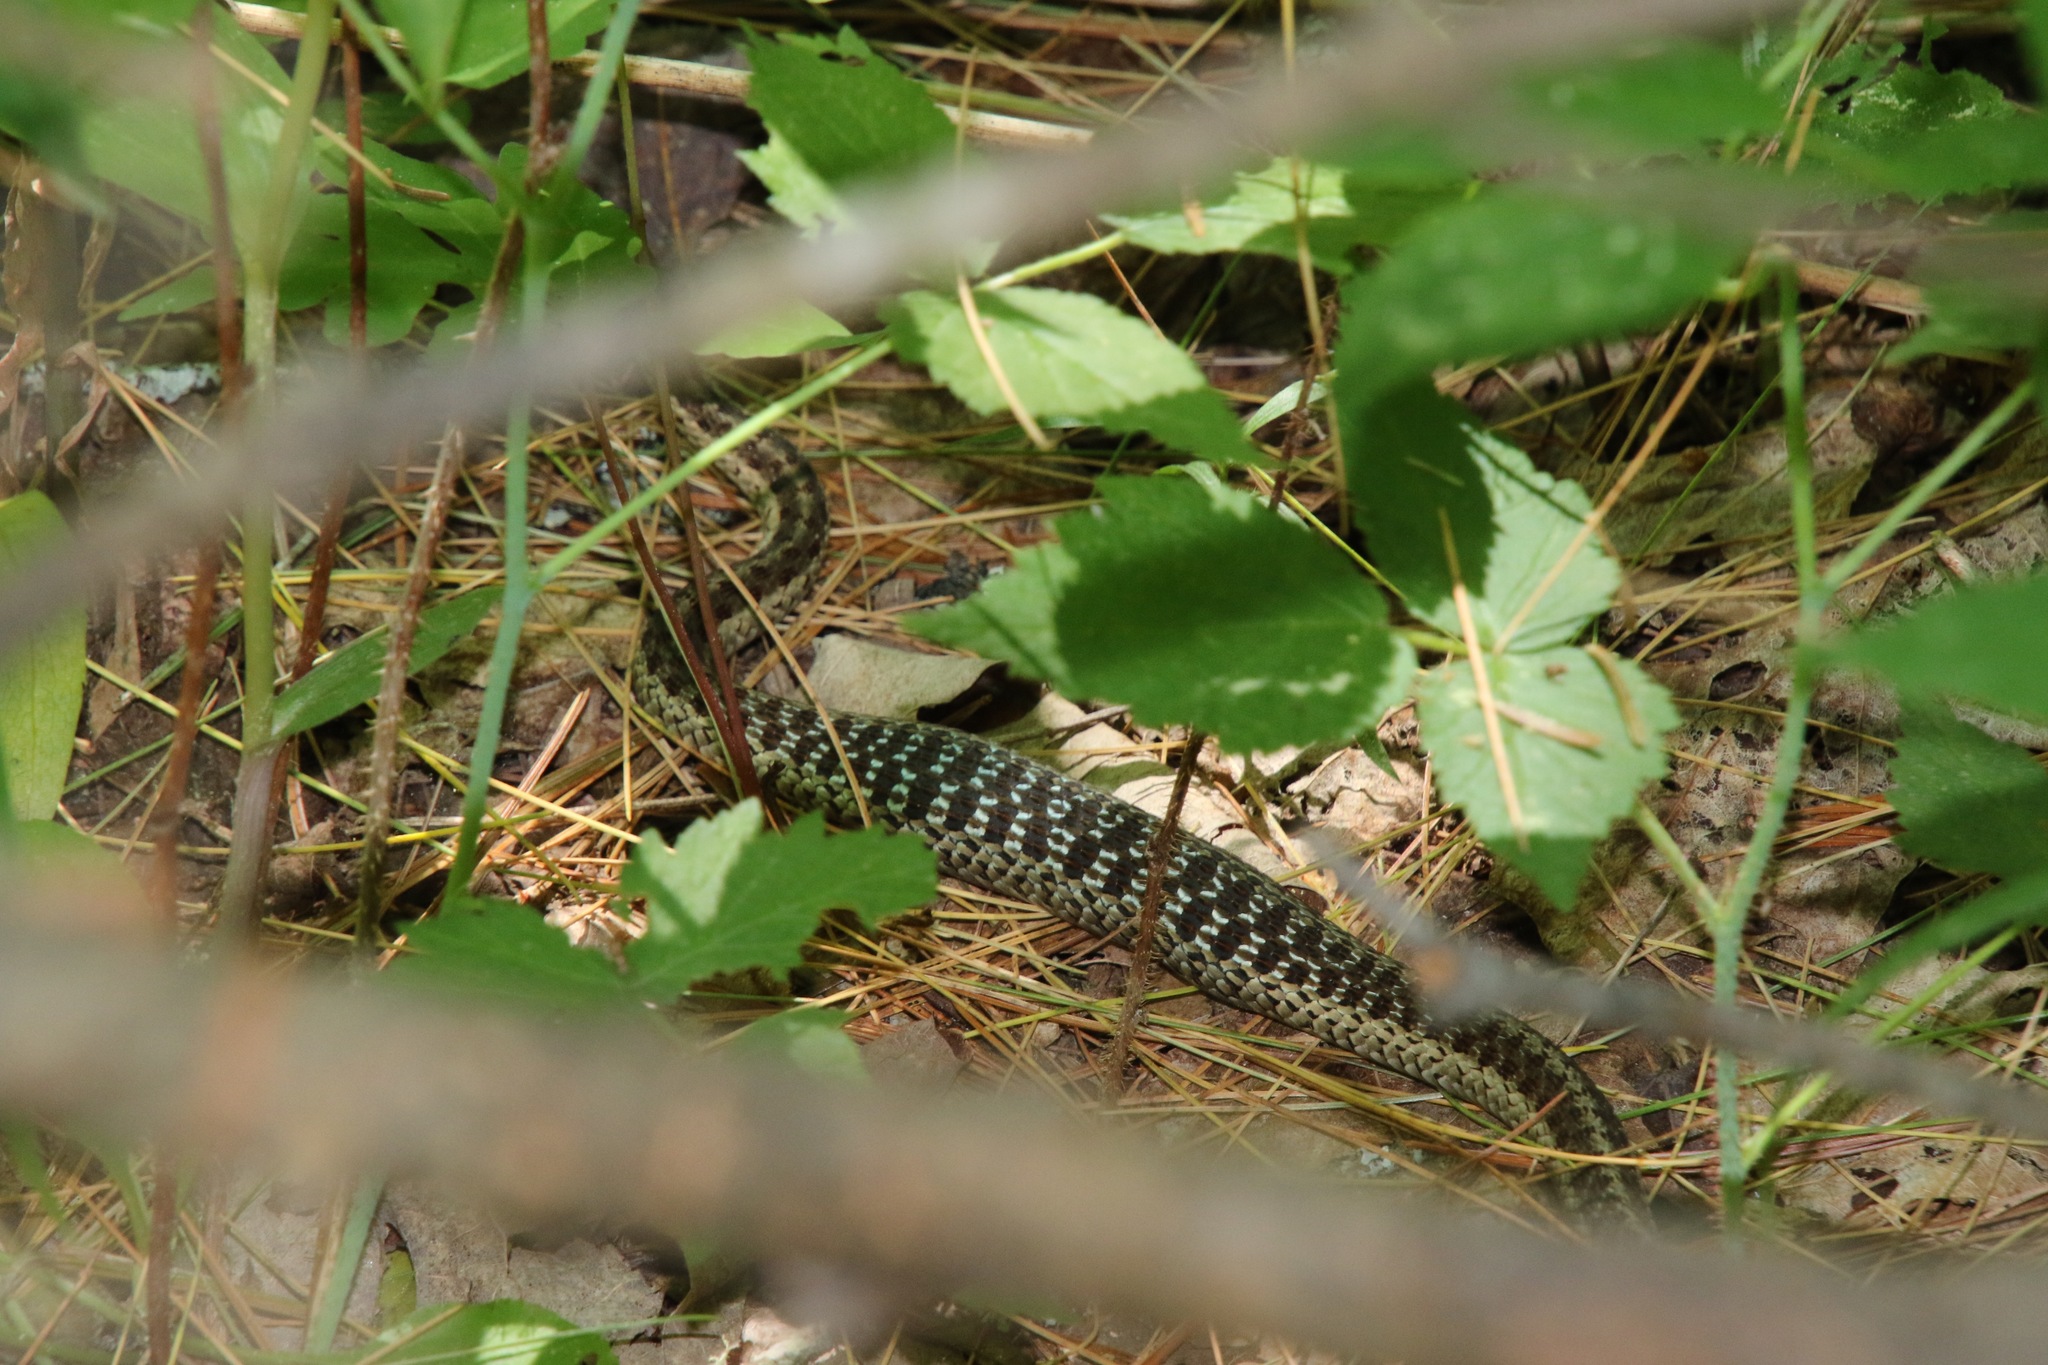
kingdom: Animalia
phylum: Chordata
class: Squamata
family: Colubridae
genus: Thamnophis
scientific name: Thamnophis sirtalis
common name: Common garter snake
